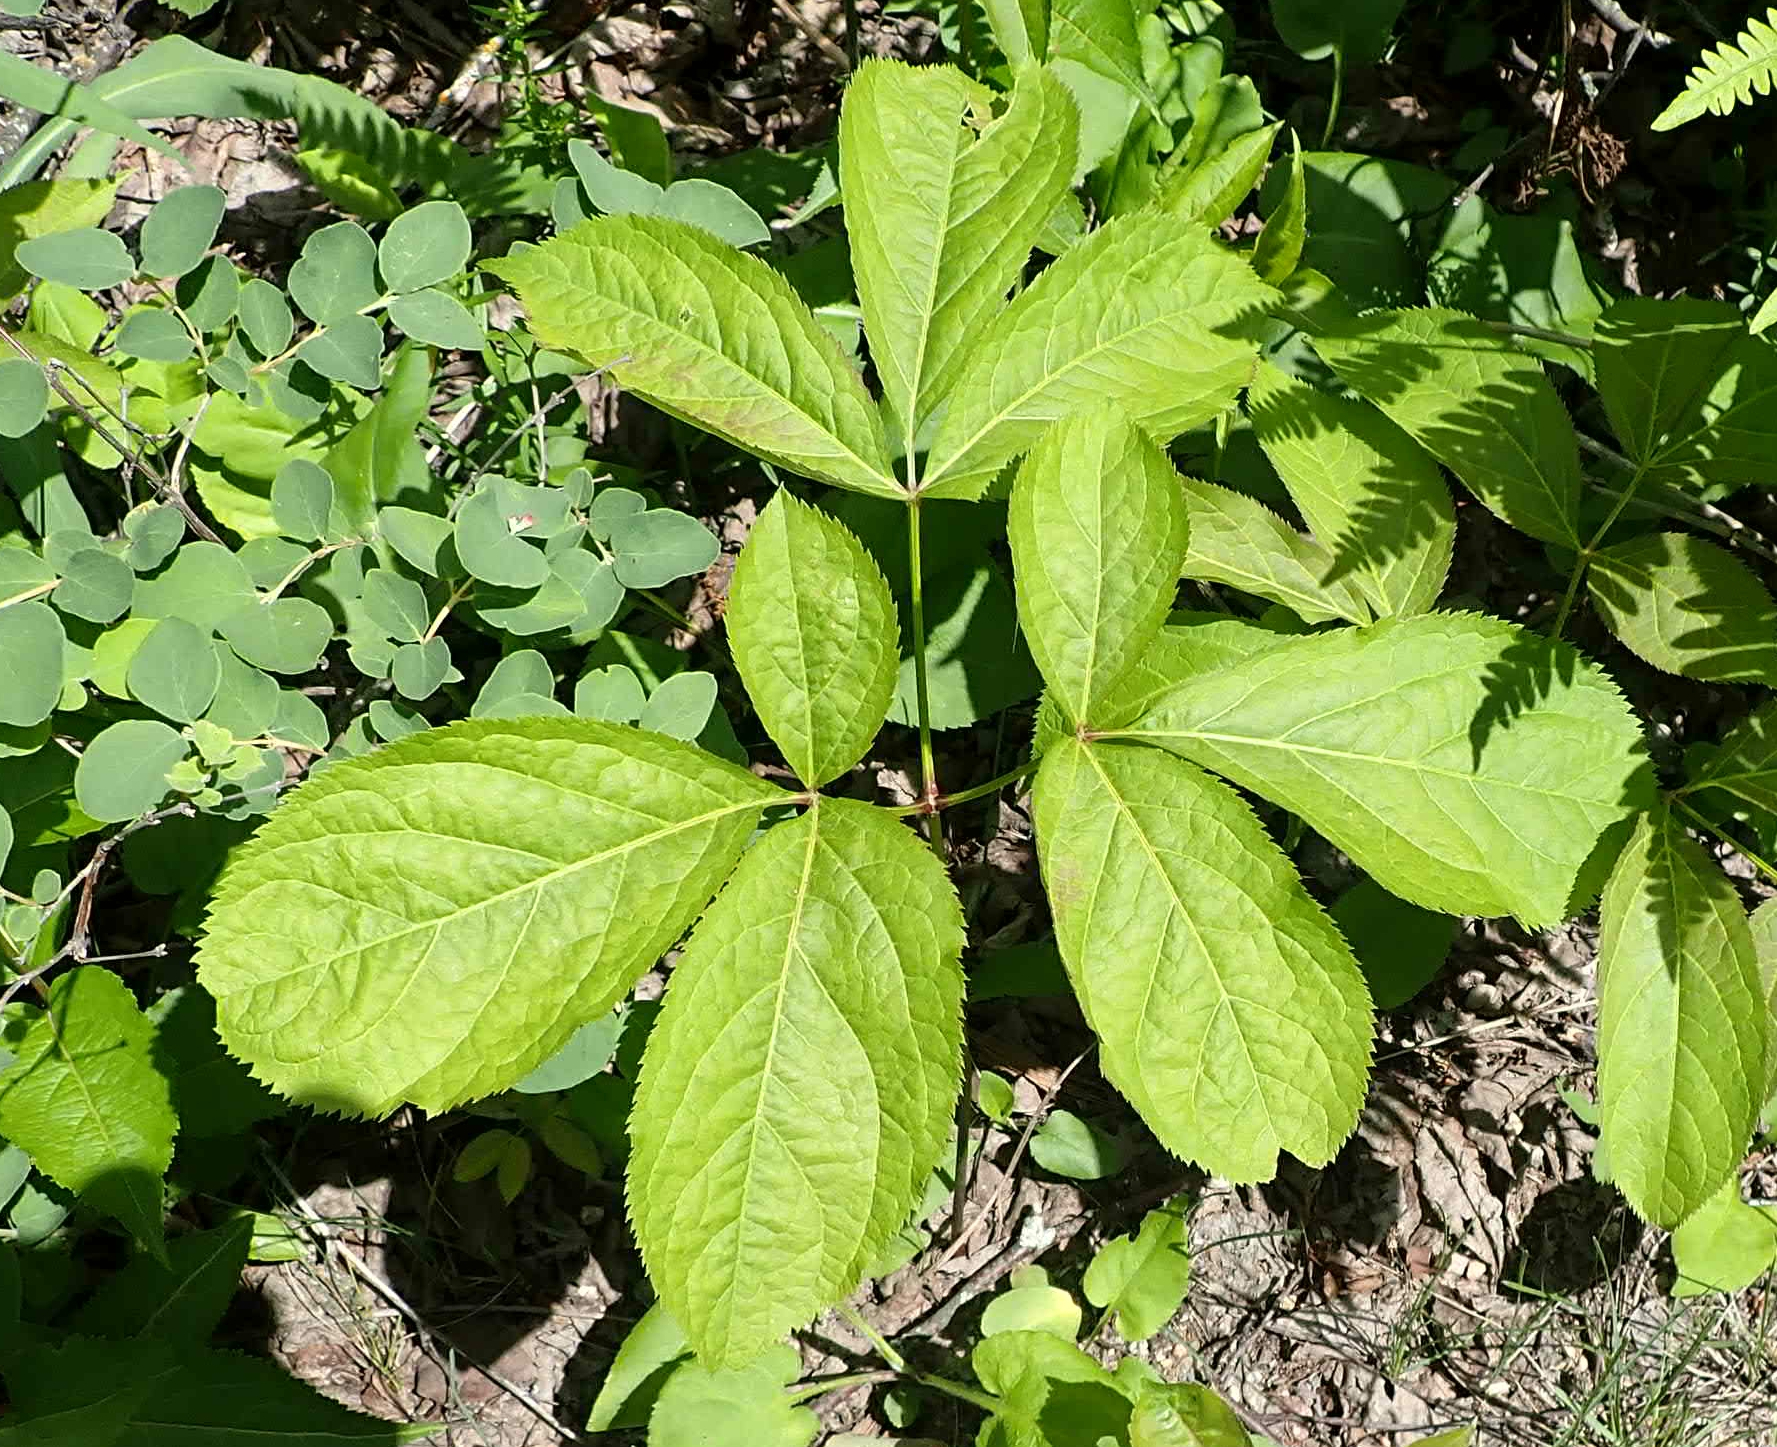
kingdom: Plantae
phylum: Tracheophyta
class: Magnoliopsida
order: Apiales
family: Araliaceae
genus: Aralia
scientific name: Aralia nudicaulis
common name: Wild sarsaparilla
